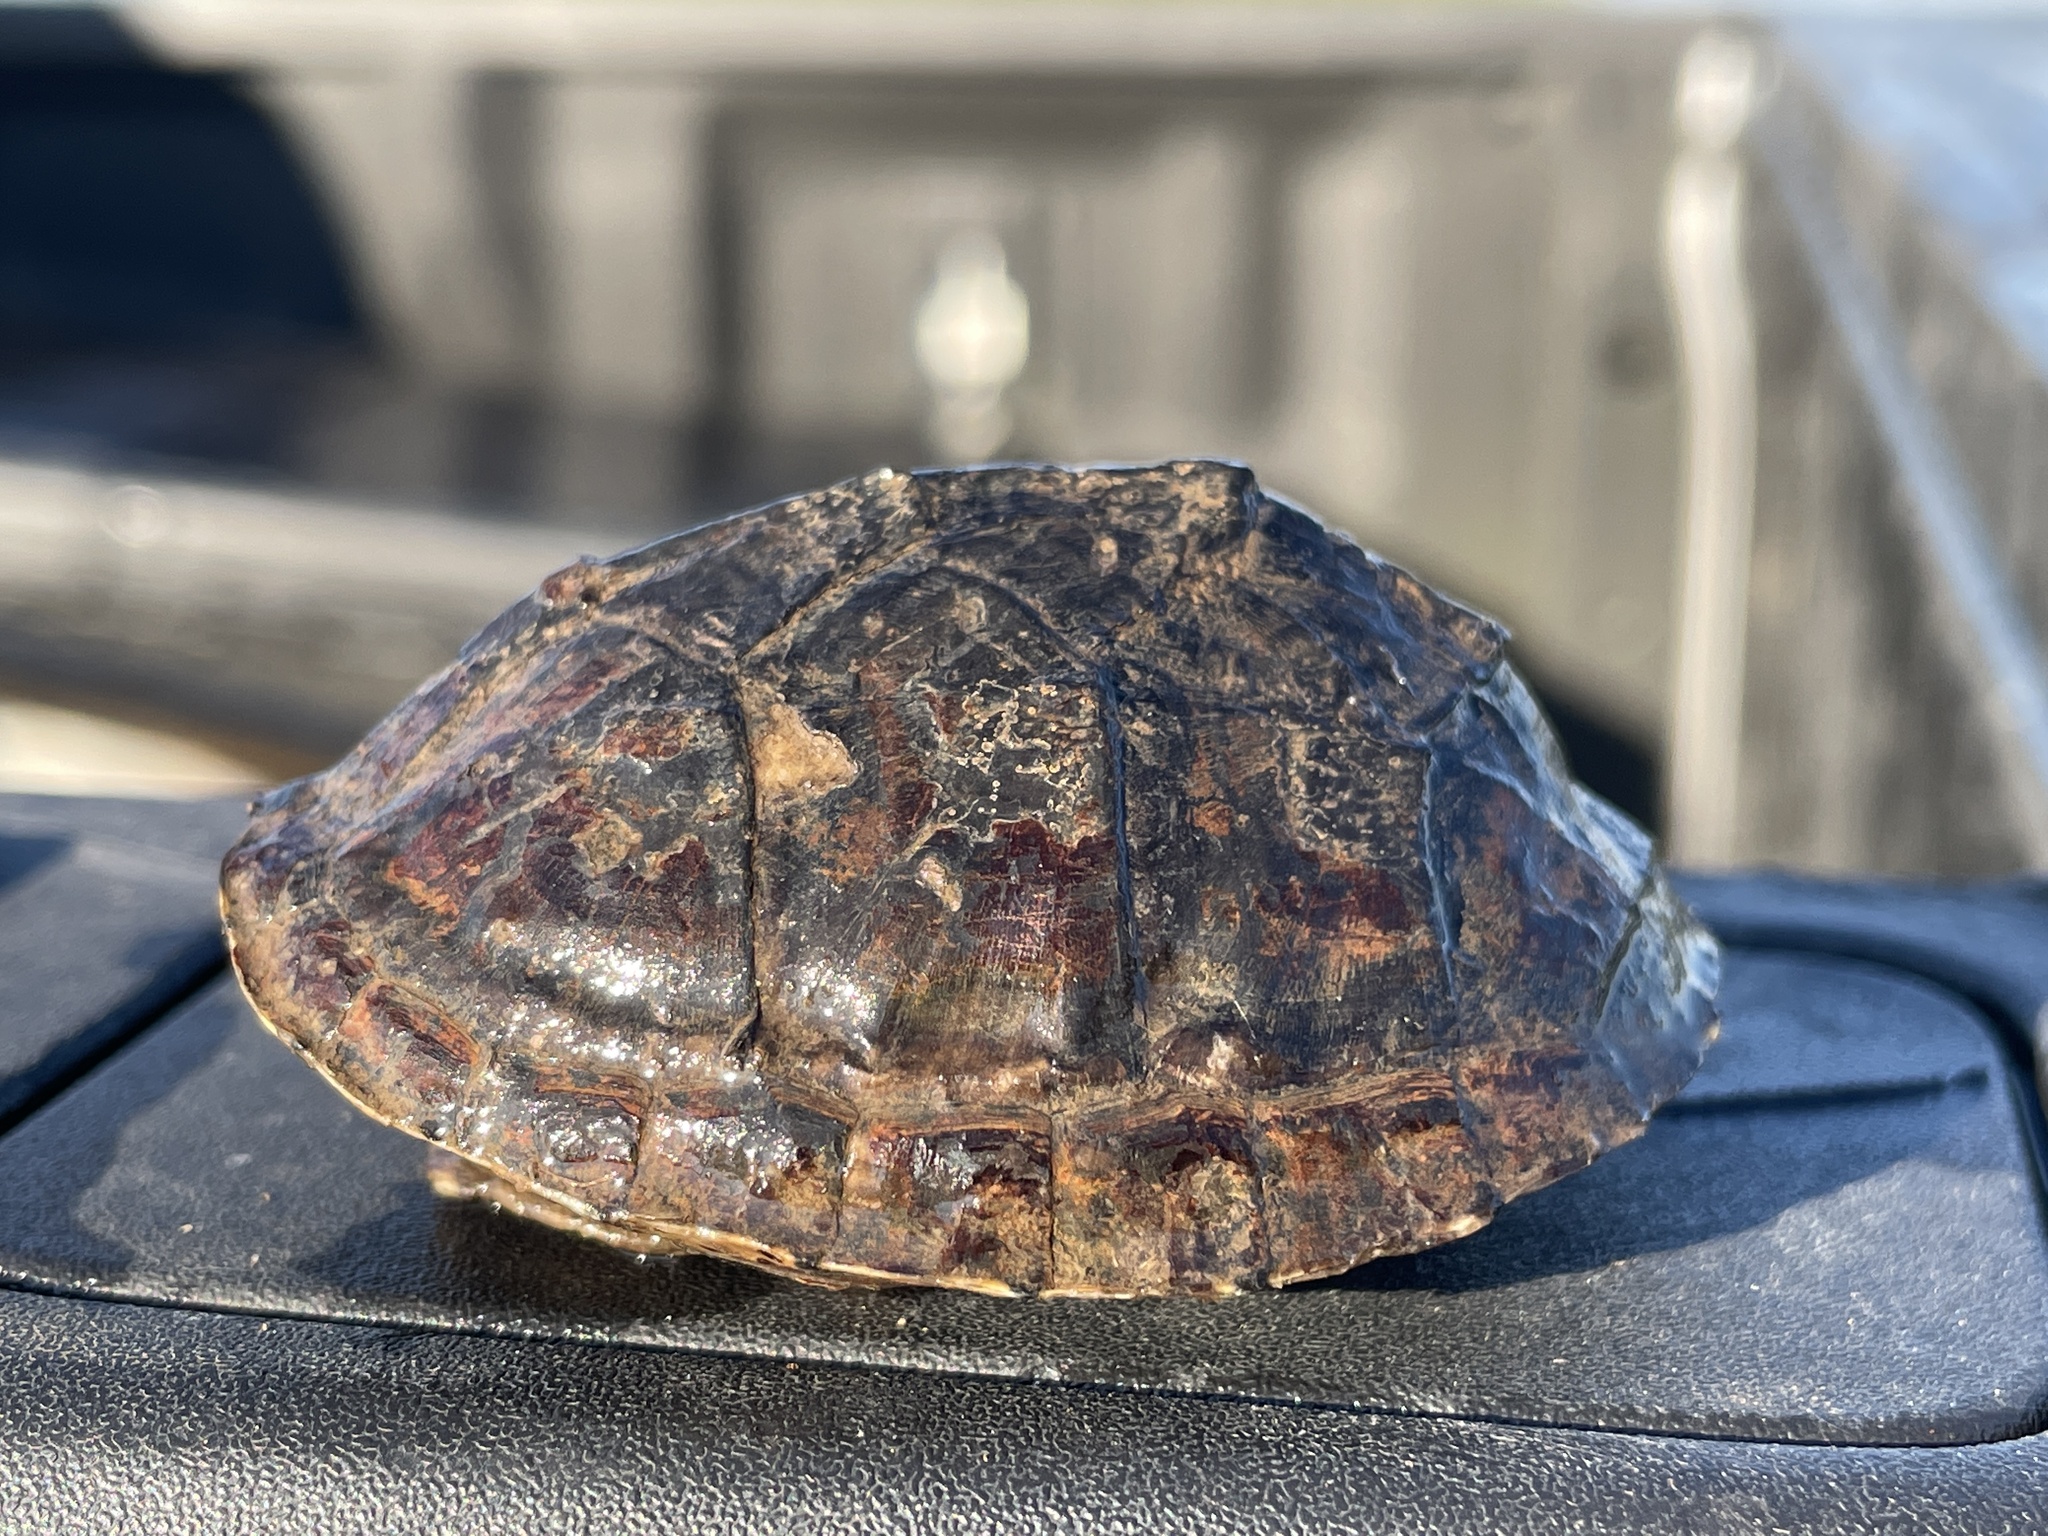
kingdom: Animalia
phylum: Chordata
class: Testudines
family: Kinosternidae
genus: Sternotherus
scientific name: Sternotherus odoratus
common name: Common musk turtle
